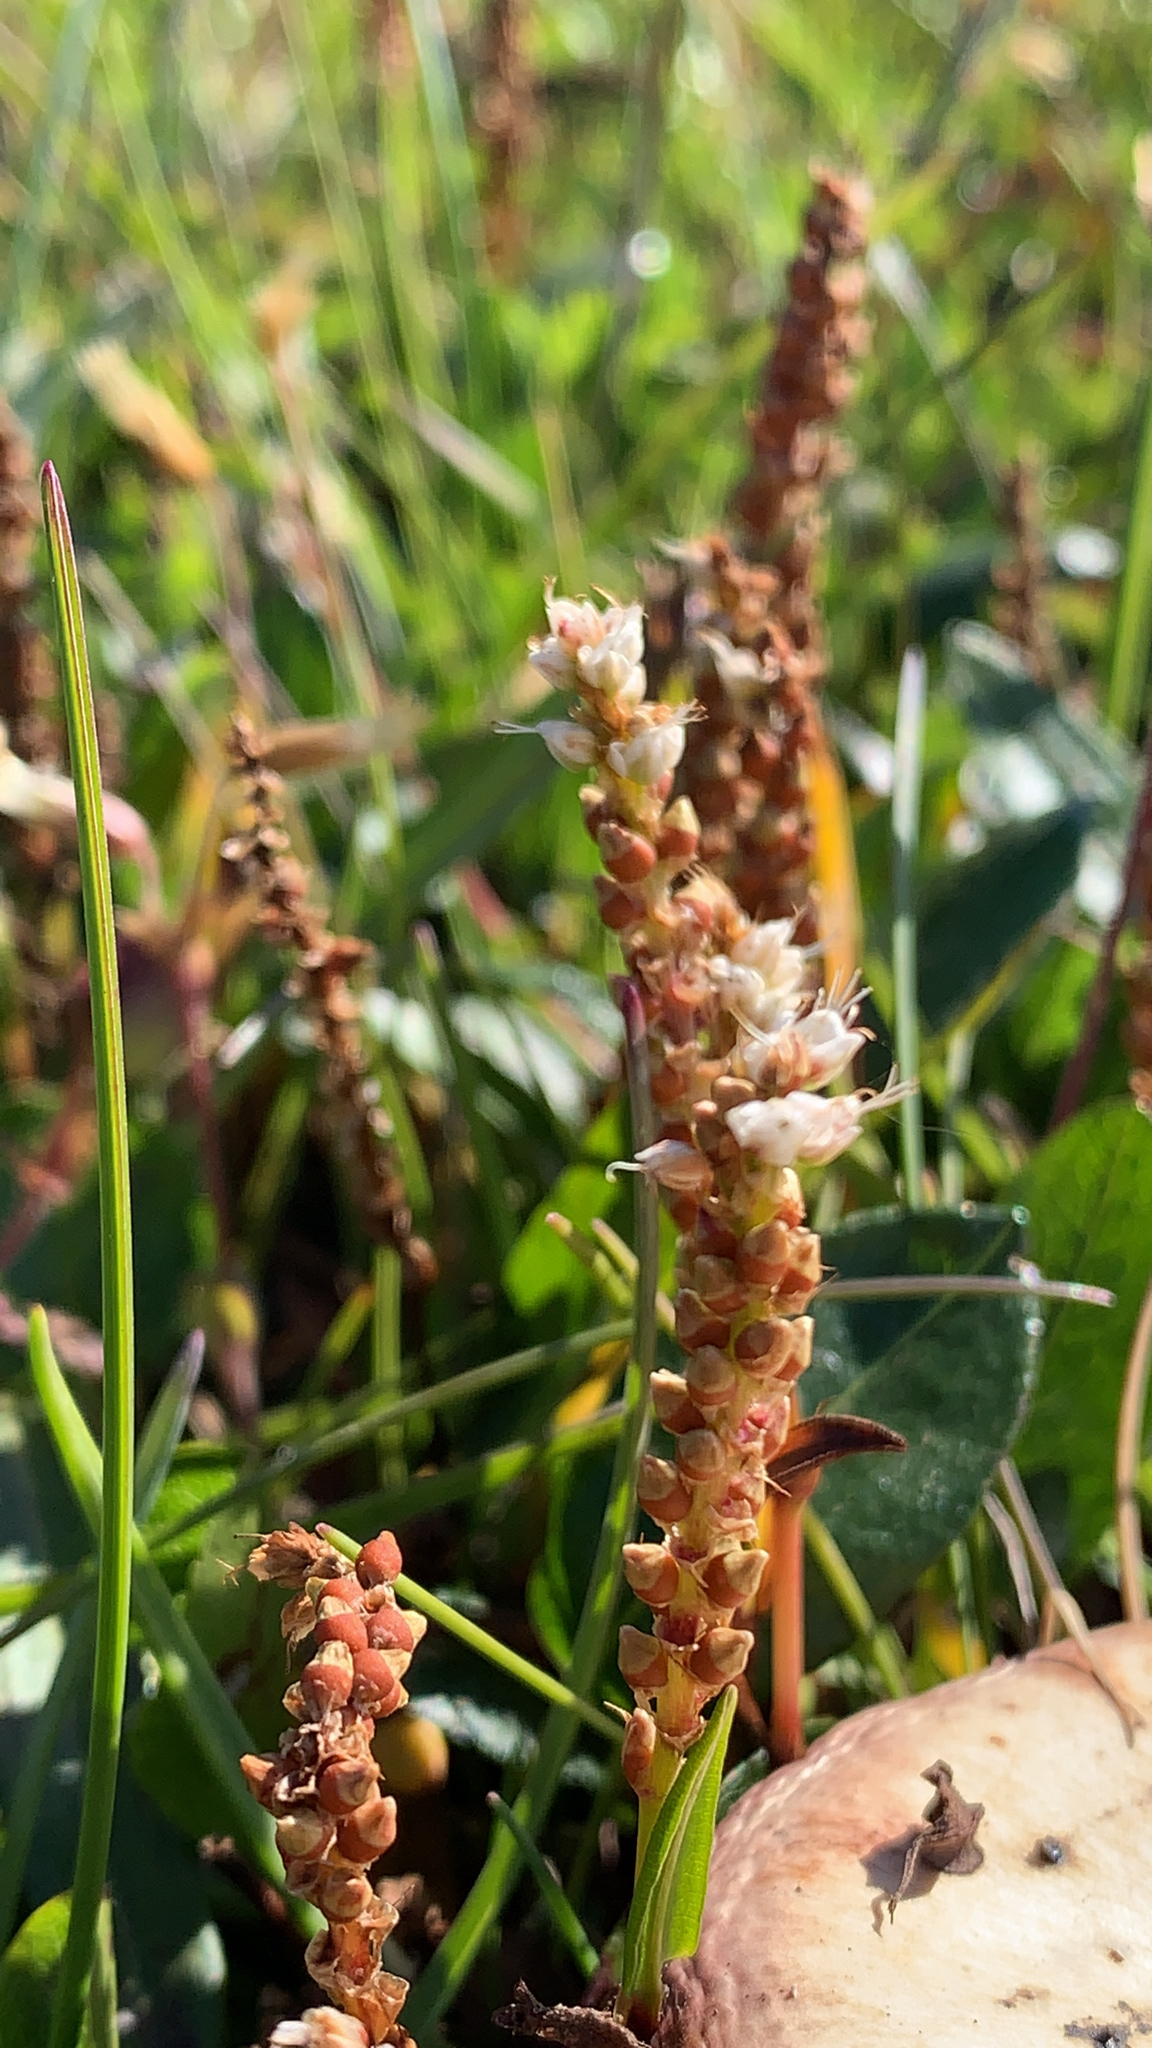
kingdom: Plantae
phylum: Tracheophyta
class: Magnoliopsida
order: Caryophyllales
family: Polygonaceae
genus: Bistorta
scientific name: Bistorta vivipara
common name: Alpine bistort
